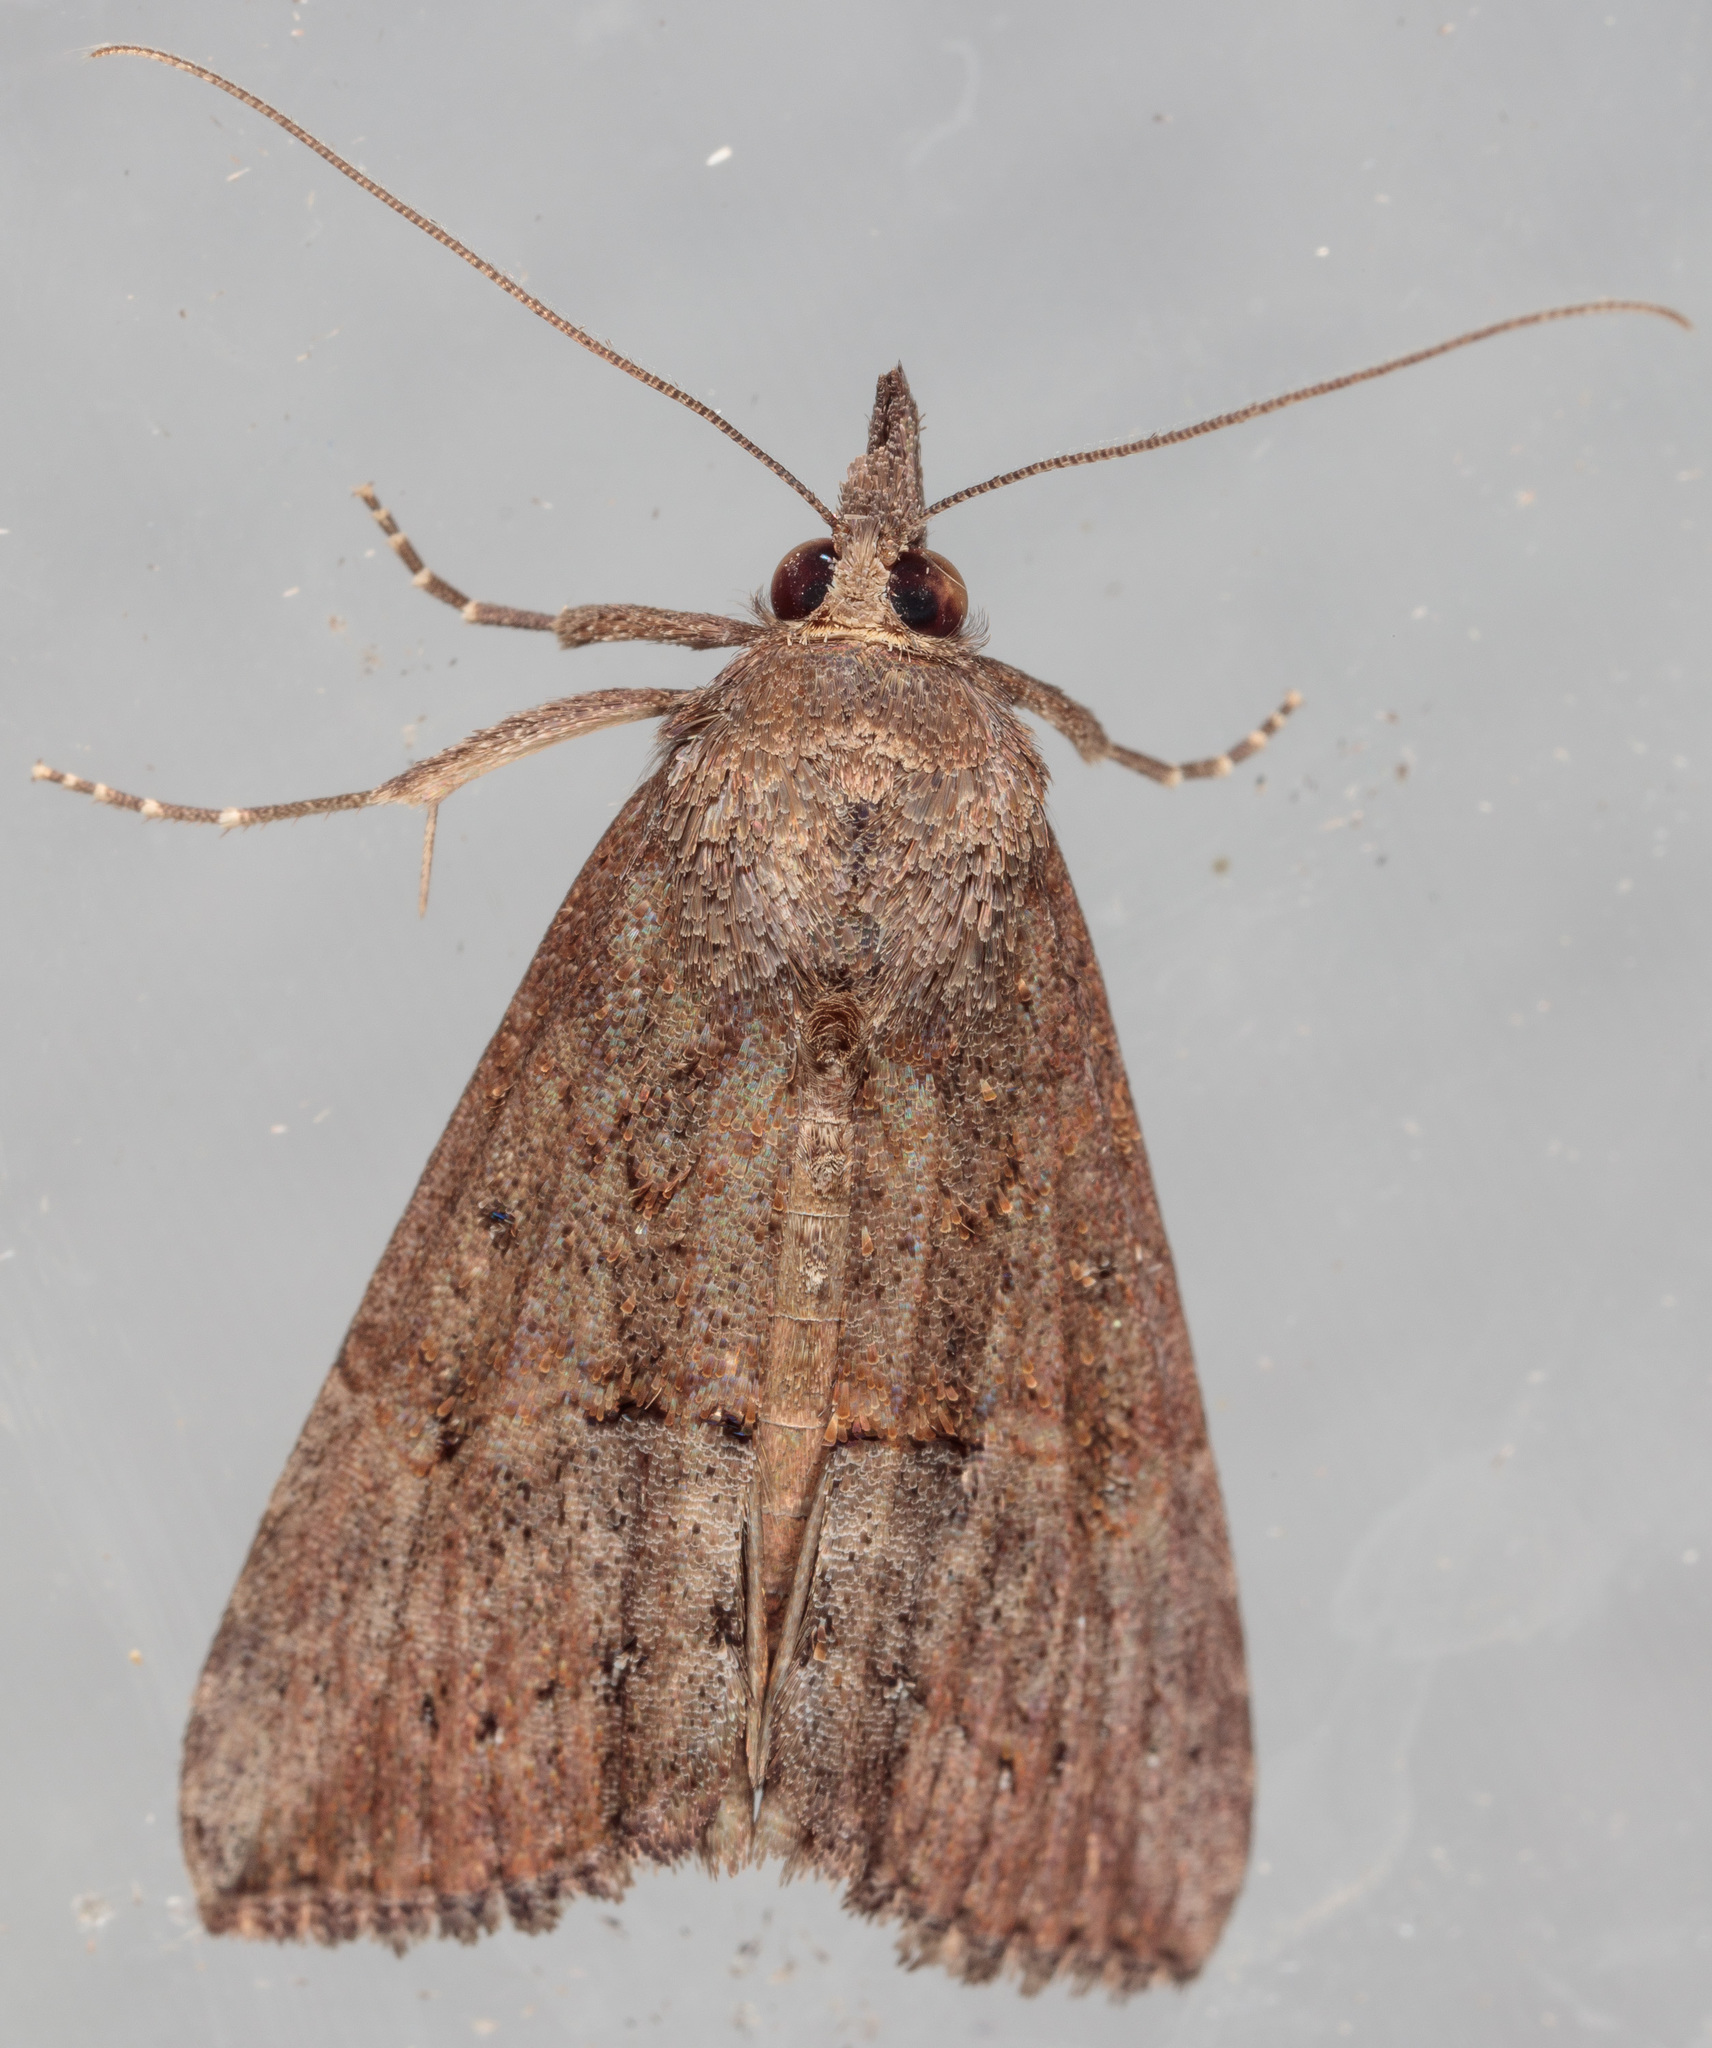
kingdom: Animalia
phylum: Arthropoda
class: Insecta
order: Lepidoptera
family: Erebidae
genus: Hypena
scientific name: Hypena scabra
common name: Green cloverworm
